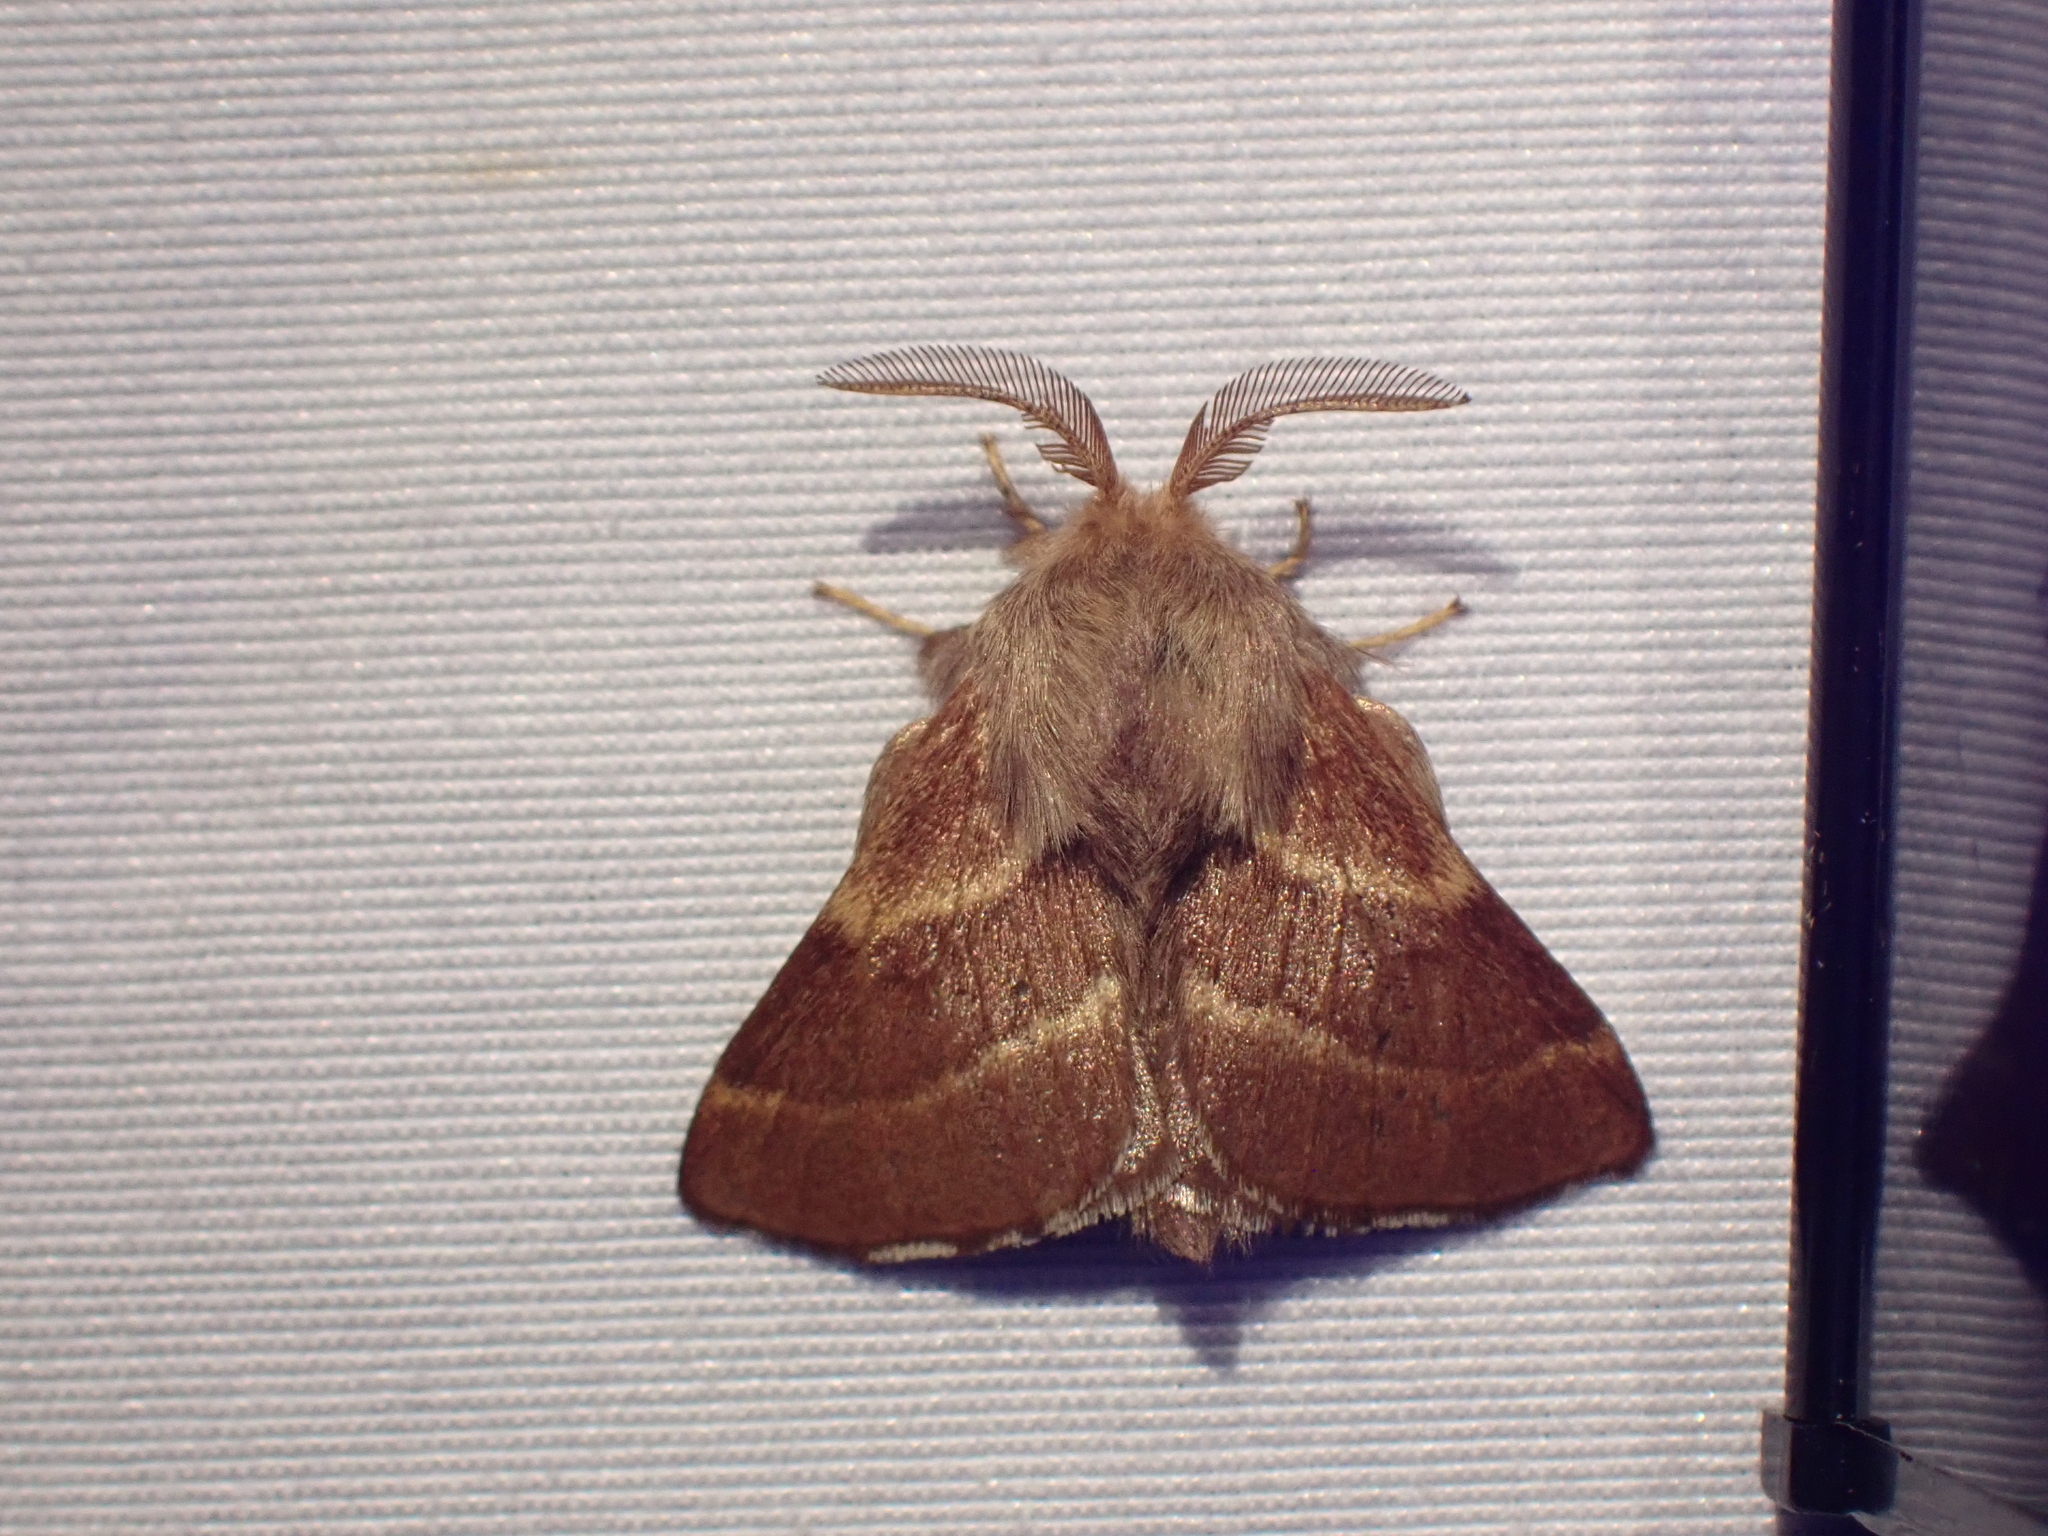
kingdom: Animalia
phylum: Arthropoda
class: Insecta
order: Lepidoptera
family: Lasiocampidae
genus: Malacosoma
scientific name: Malacosoma californica
